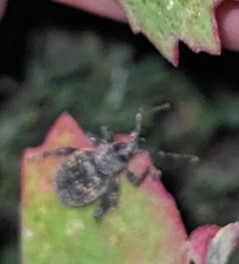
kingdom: Animalia
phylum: Arthropoda
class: Insecta
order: Coleoptera
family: Curculionidae
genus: Otiorhynchus
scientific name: Otiorhynchus sulcatus
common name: Black vine weevil
